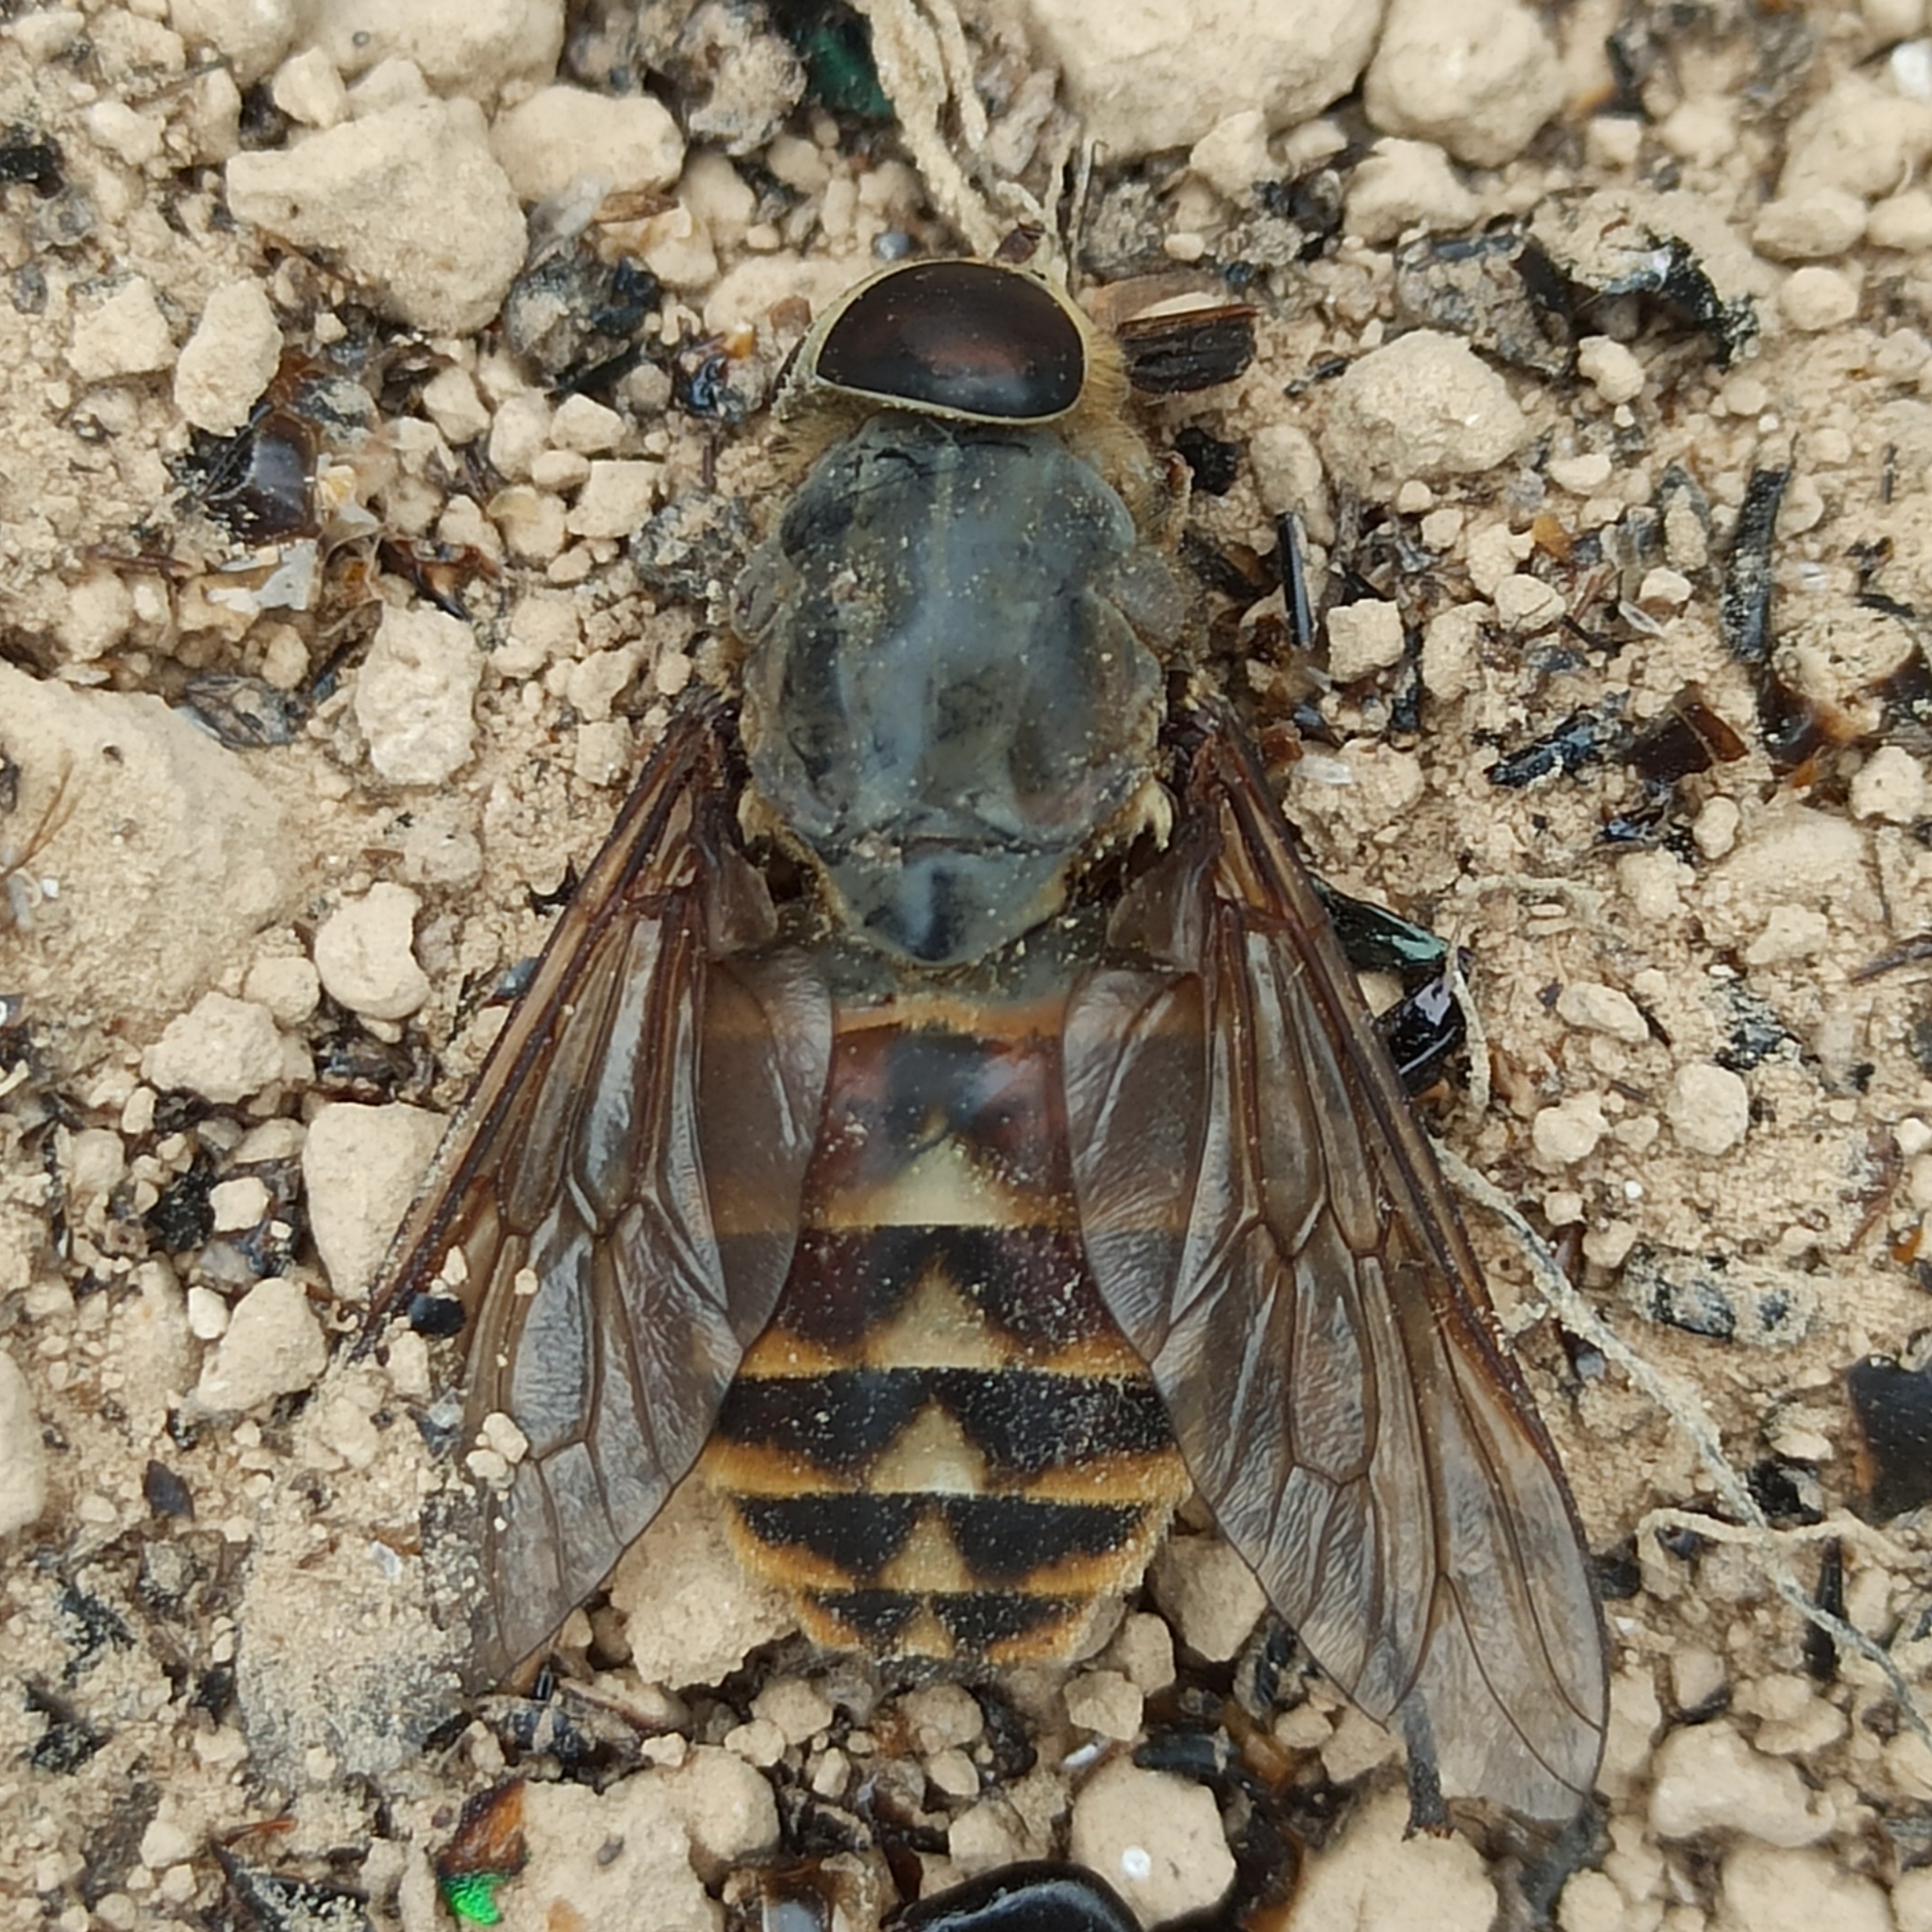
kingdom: Animalia
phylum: Arthropoda
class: Insecta
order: Diptera
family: Tabanidae
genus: Tabanus
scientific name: Tabanus bovinus
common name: Pale giant horsefly
